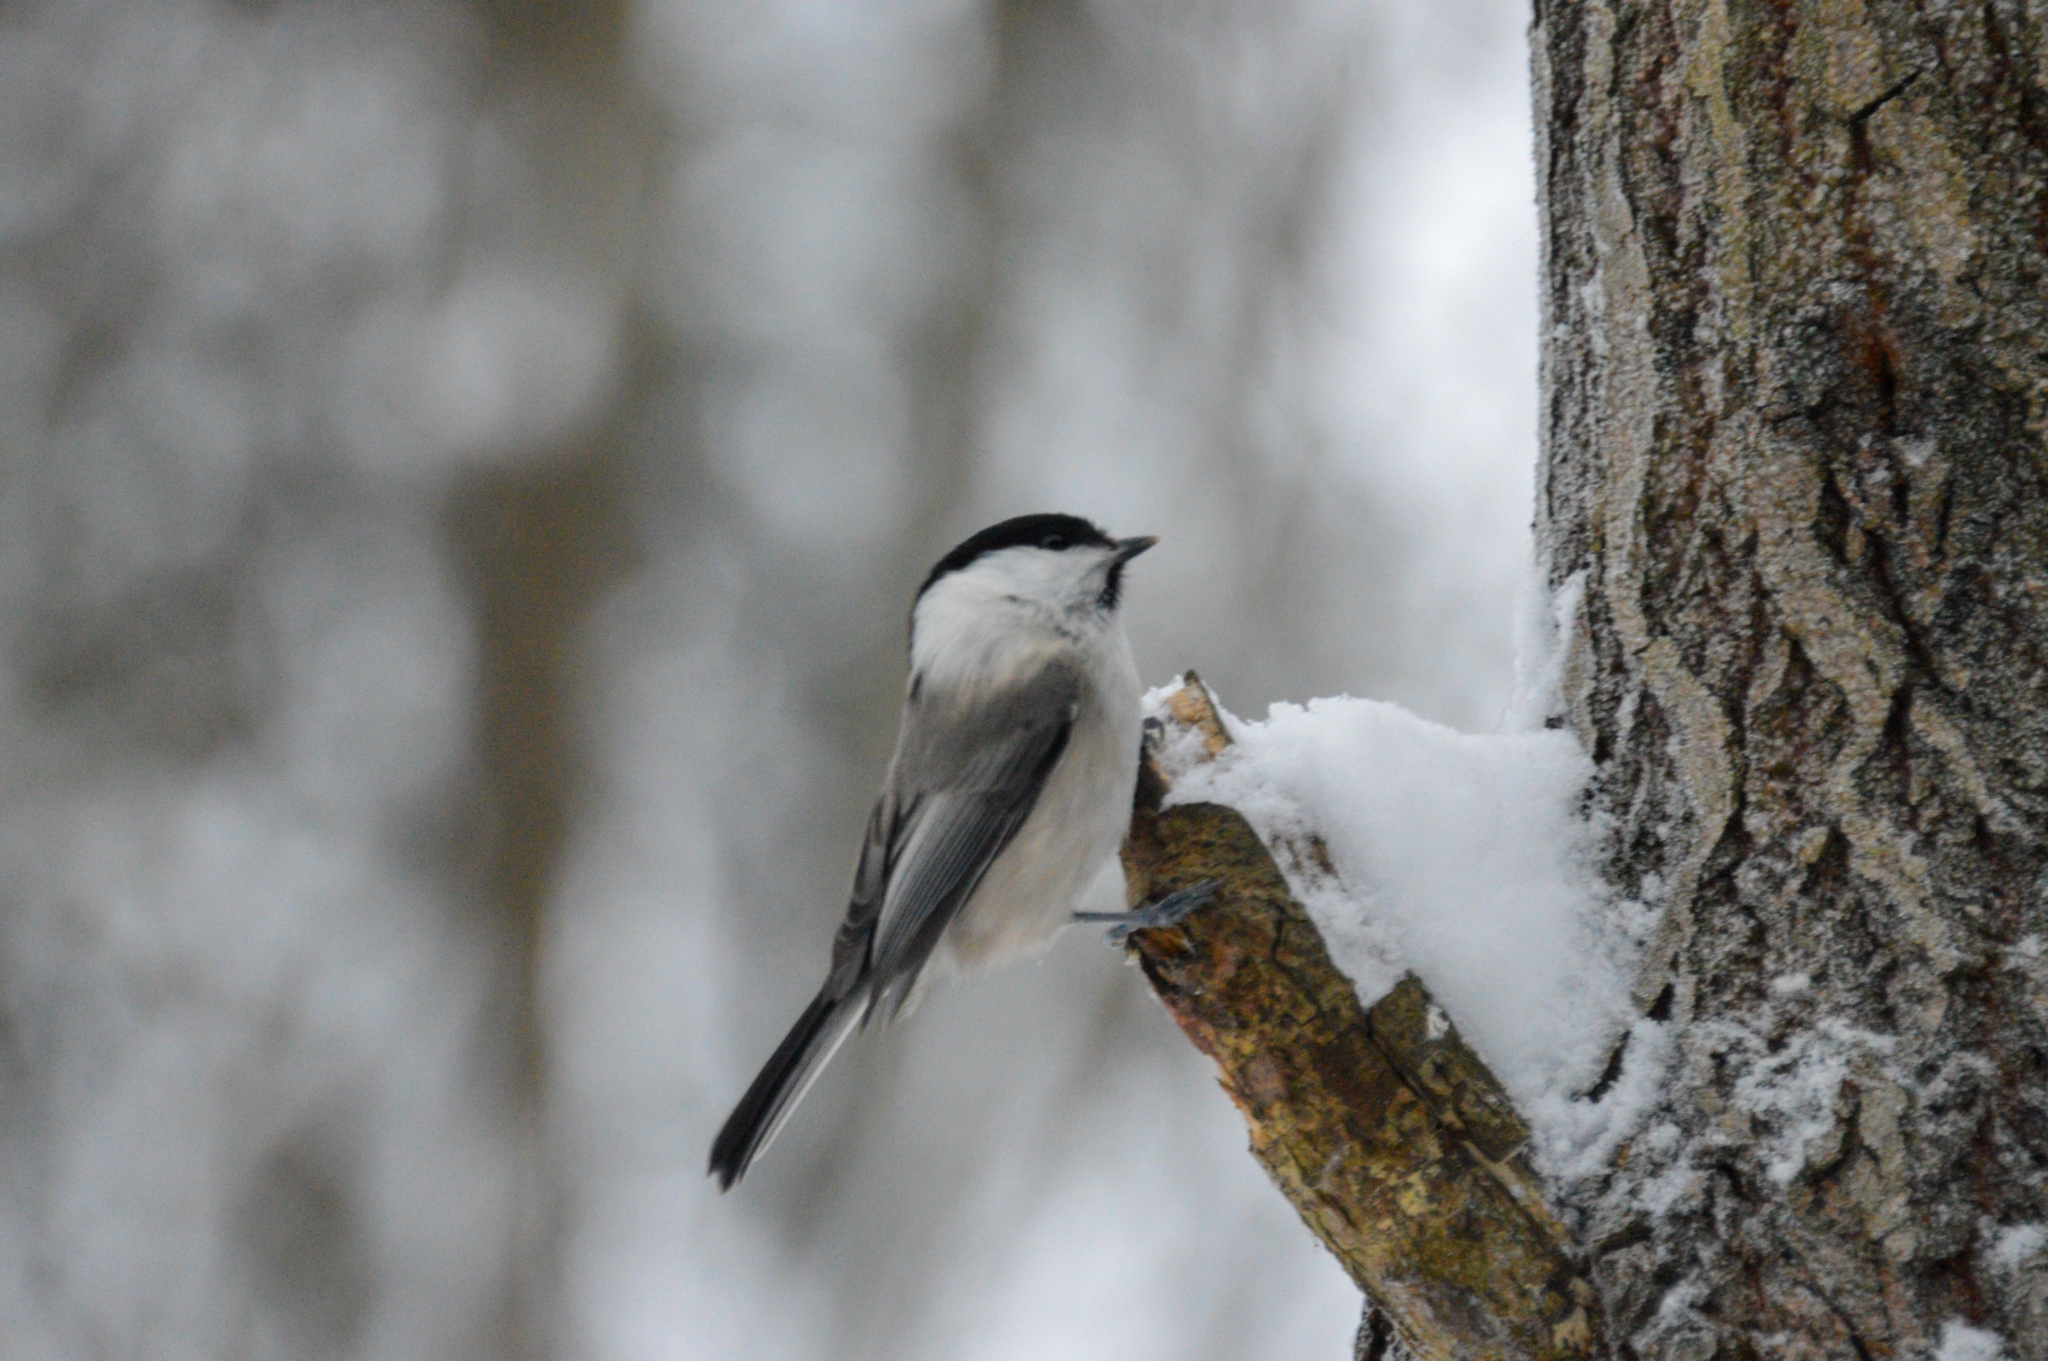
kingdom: Animalia
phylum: Chordata
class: Aves
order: Passeriformes
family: Paridae
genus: Poecile
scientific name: Poecile montanus
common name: Willow tit
